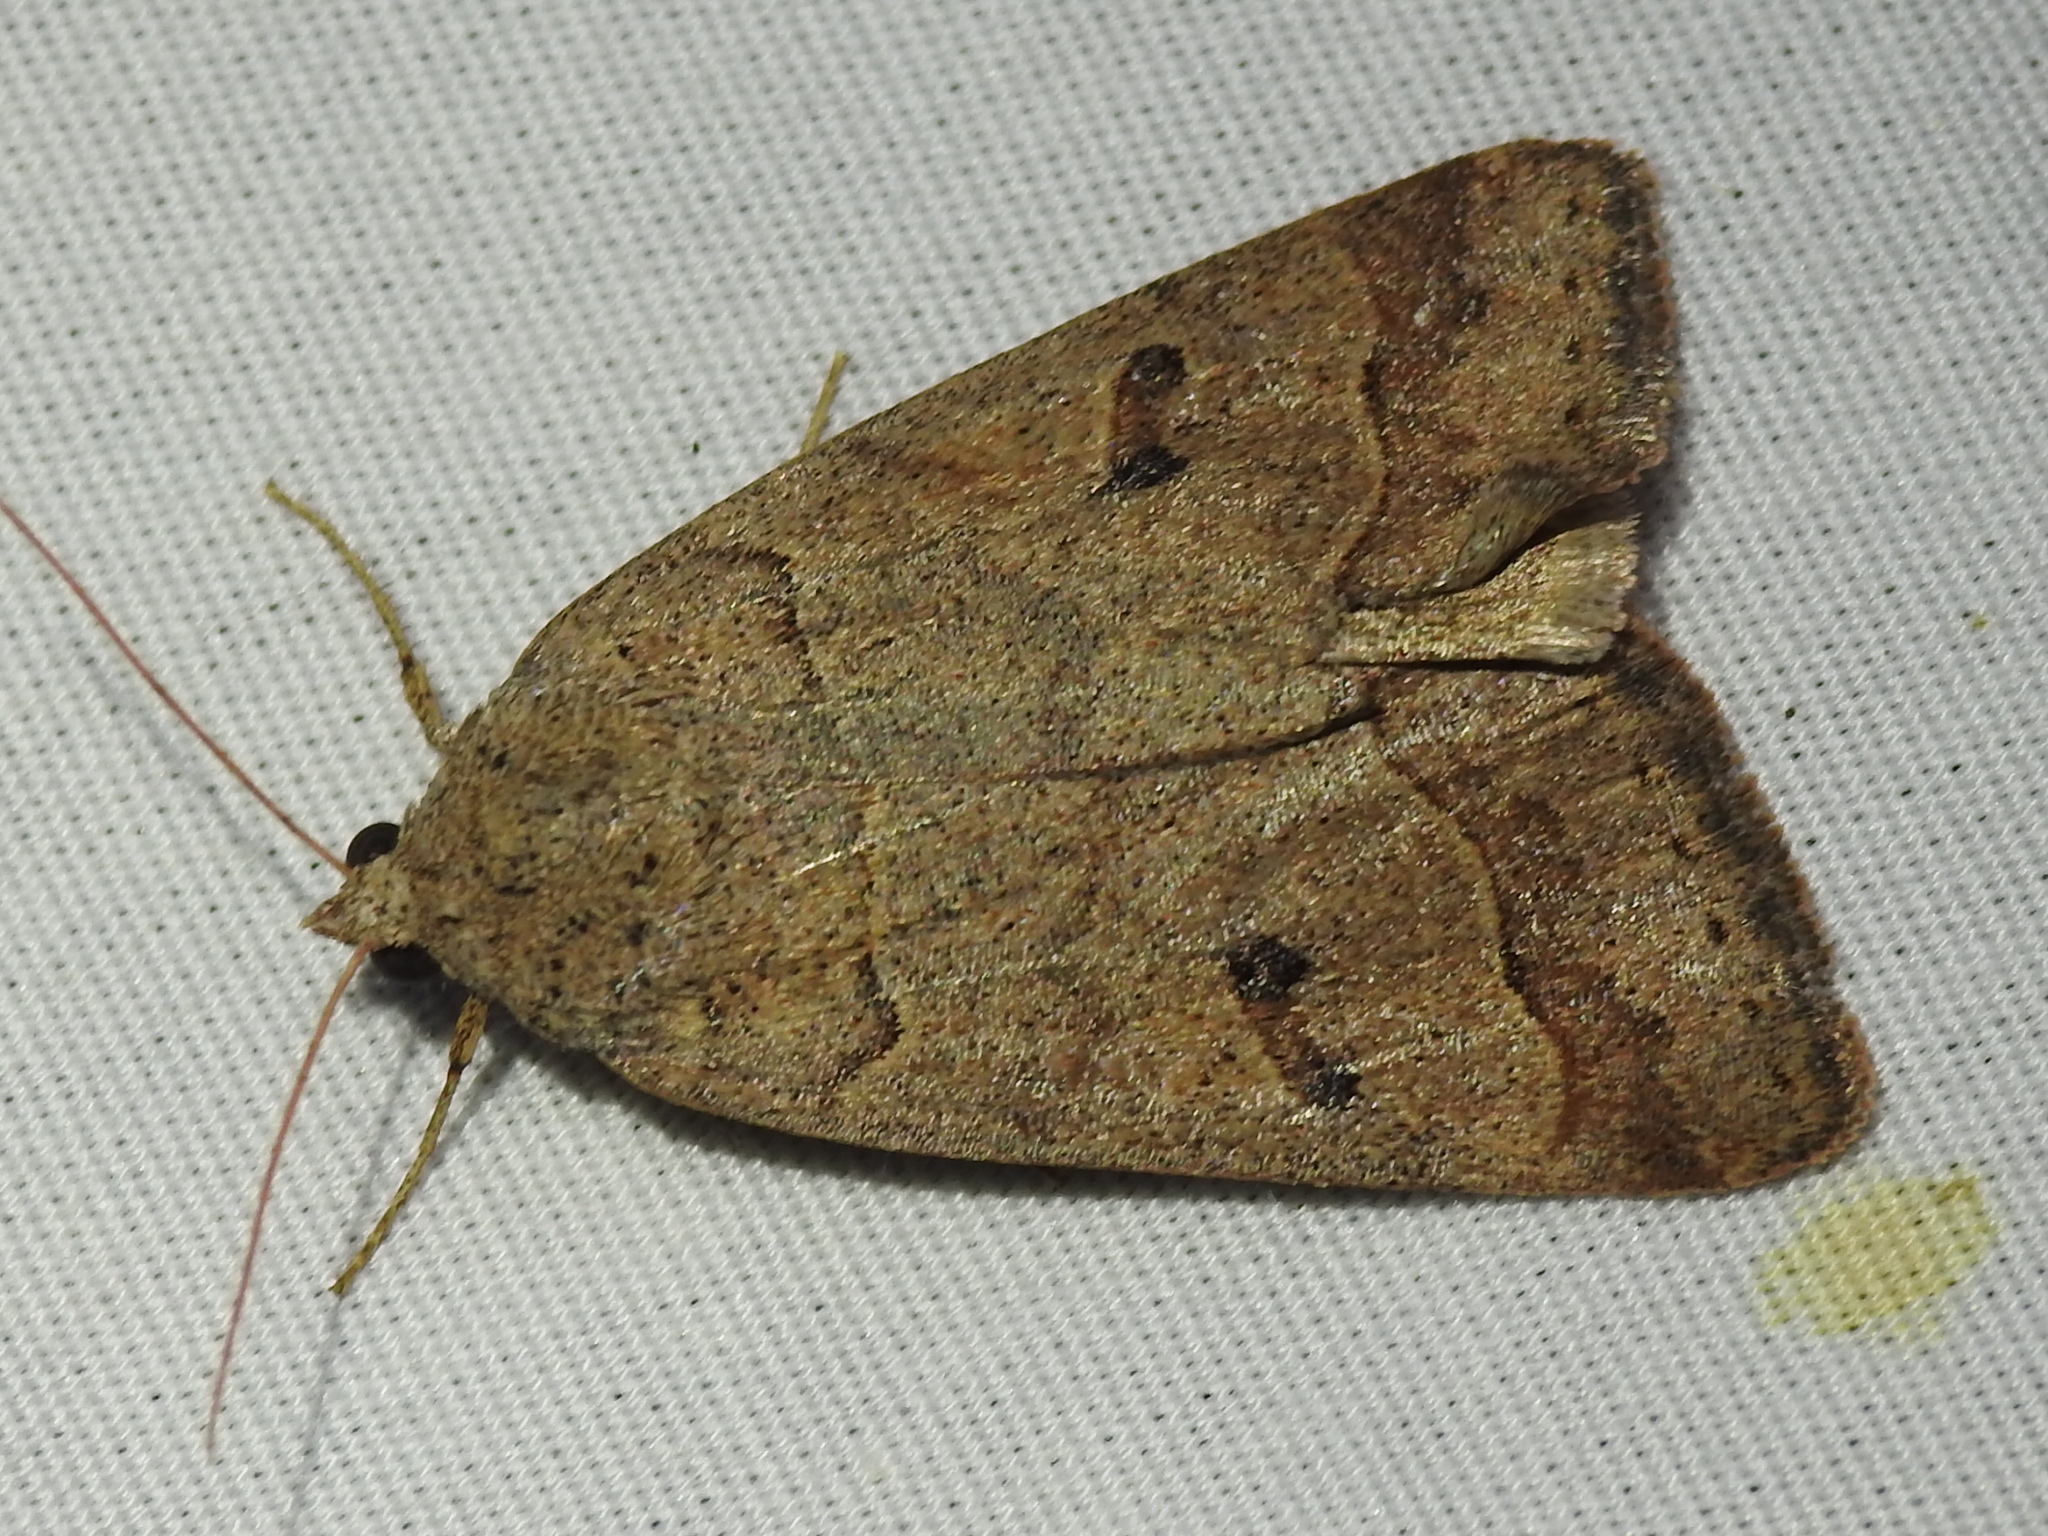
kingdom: Animalia
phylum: Arthropoda
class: Insecta
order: Lepidoptera
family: Erebidae
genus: Phoberia
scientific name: Phoberia atomaris
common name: Common oak moth
